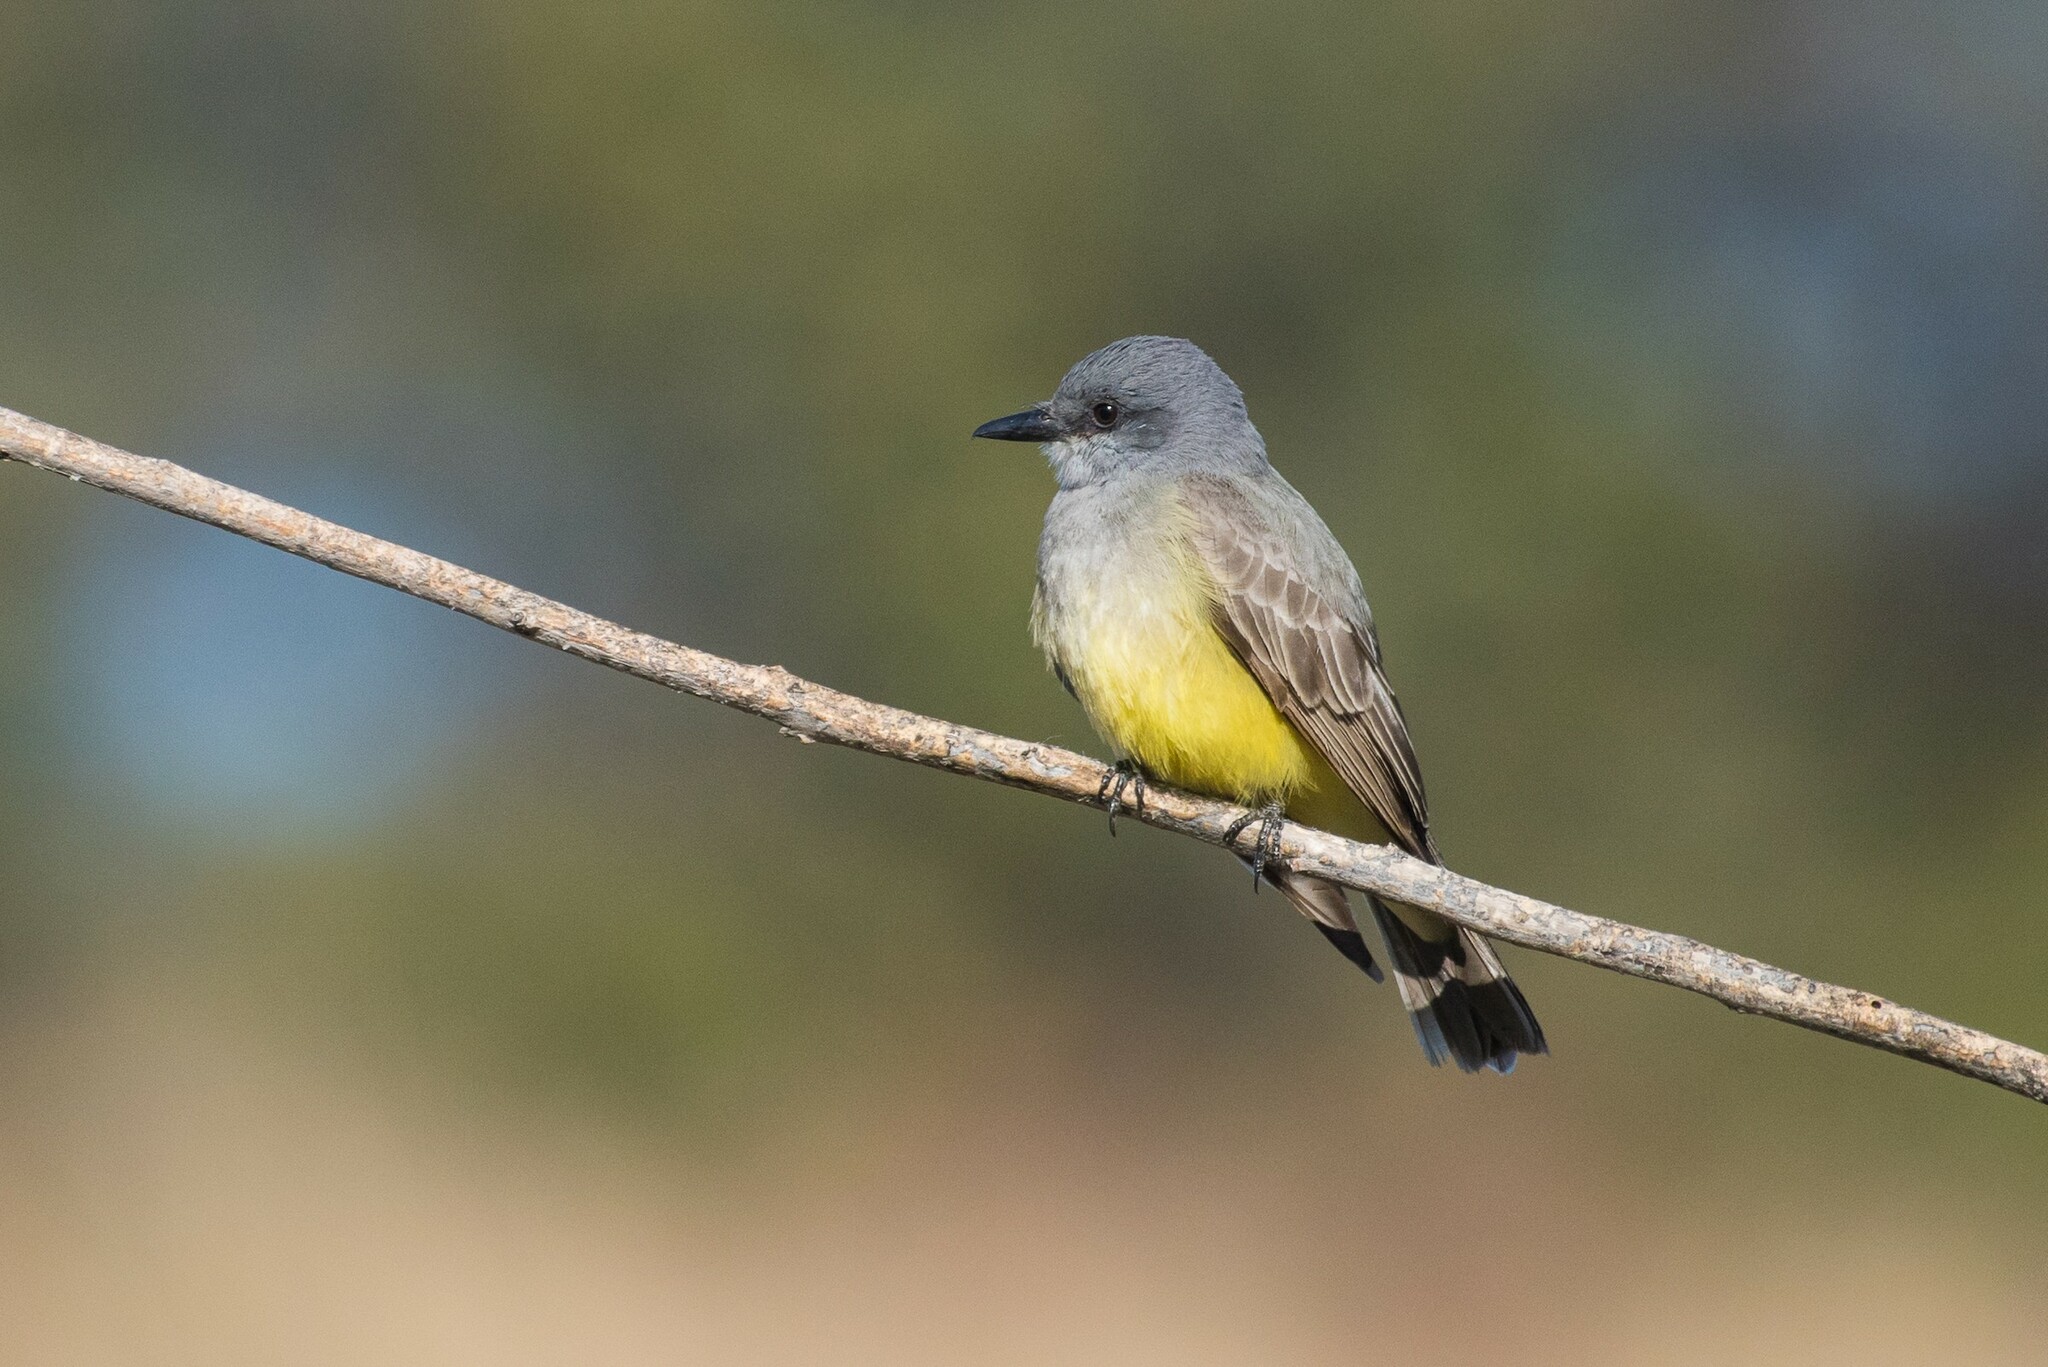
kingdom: Animalia
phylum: Chordata
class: Aves
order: Passeriformes
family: Tyrannidae
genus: Tyrannus
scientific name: Tyrannus vociferans
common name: Cassin's kingbird
